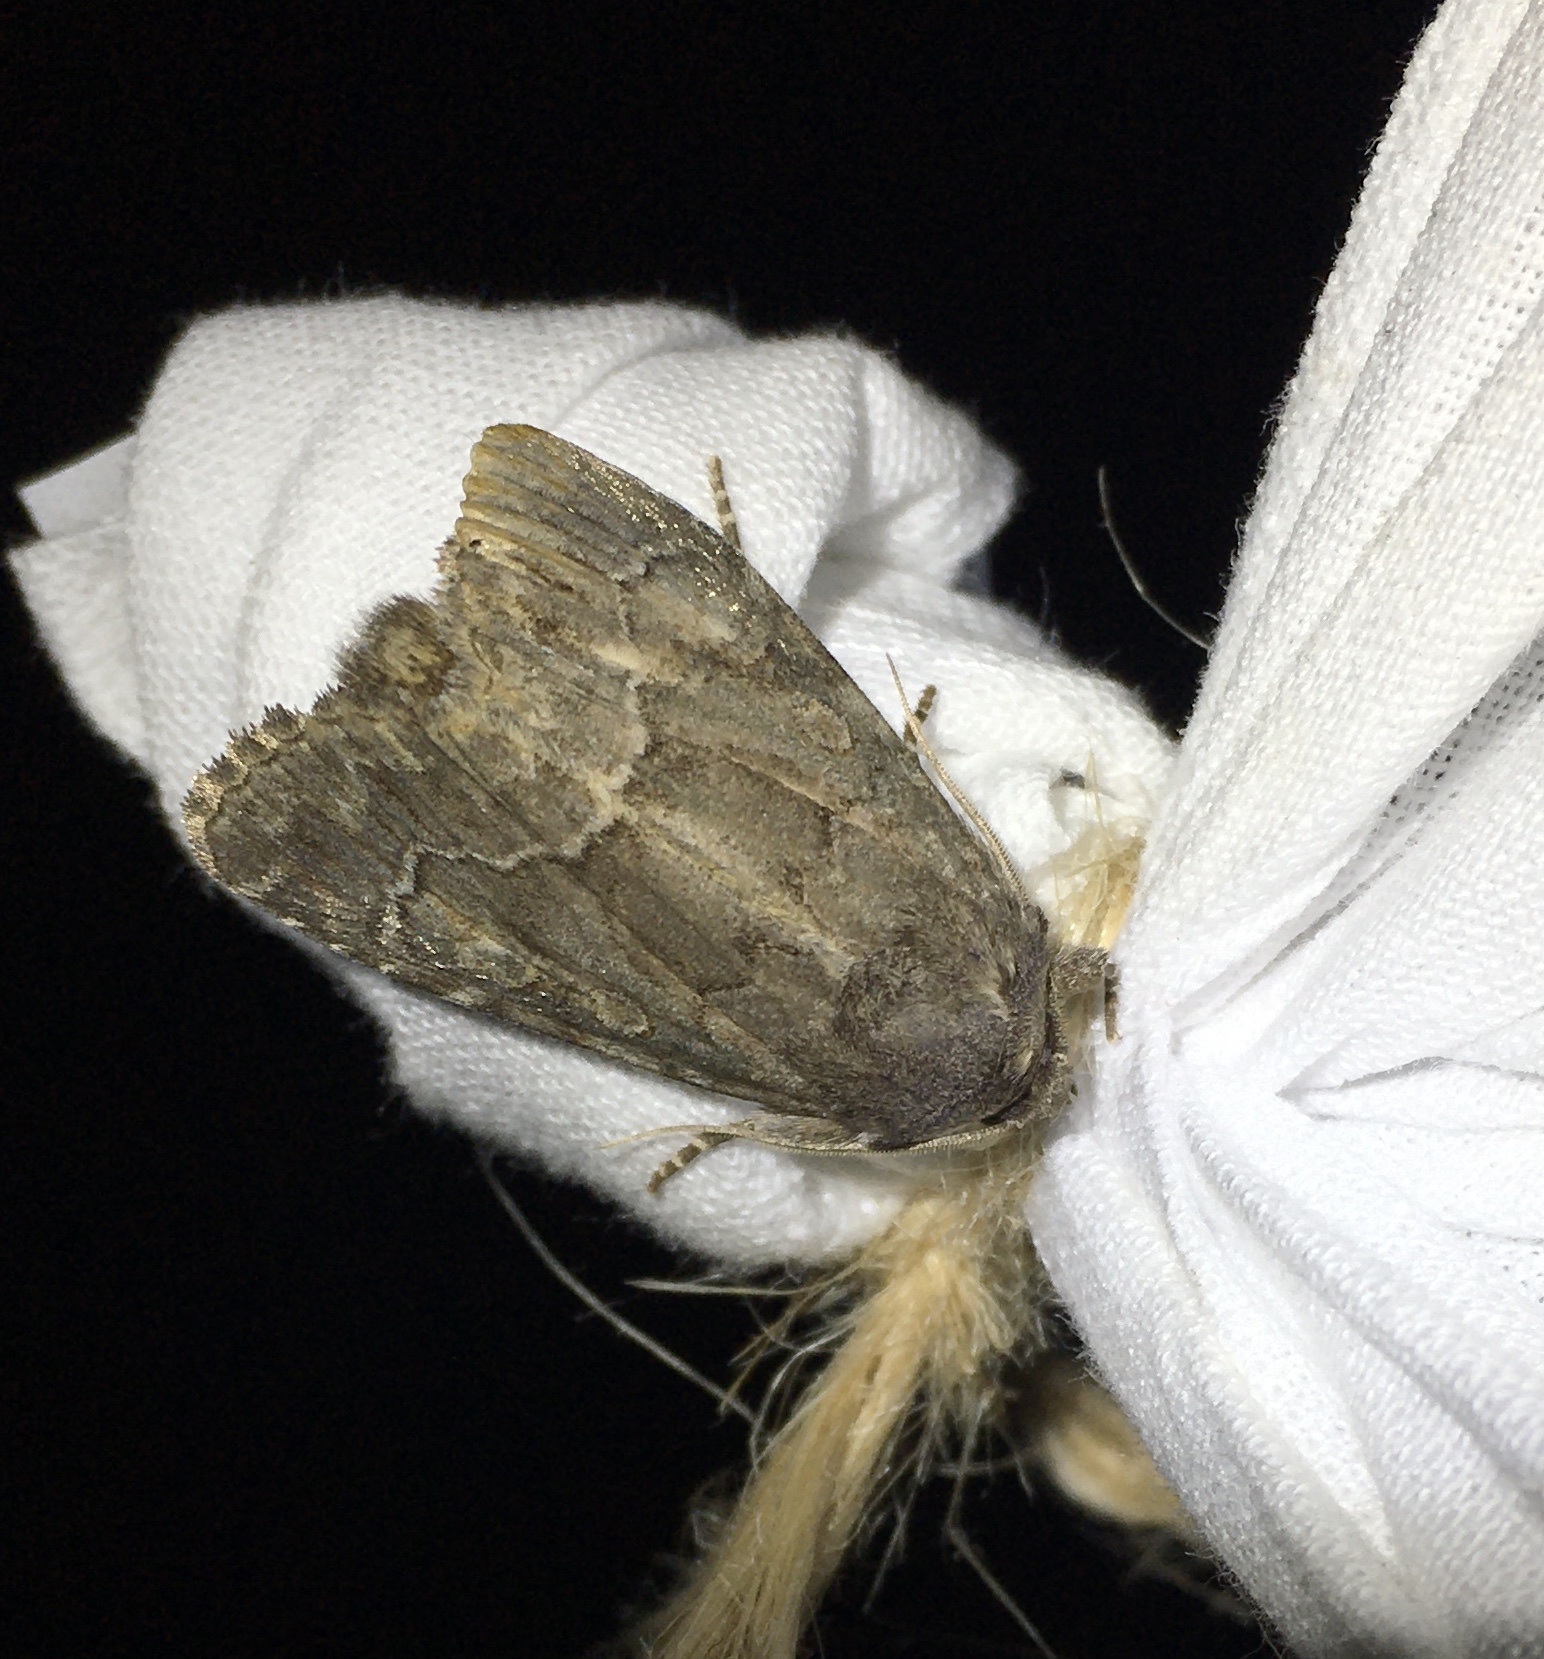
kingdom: Animalia
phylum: Arthropoda
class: Insecta
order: Lepidoptera
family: Noctuidae
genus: Thalpophila
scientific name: Thalpophila matura
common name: Straw underwing
